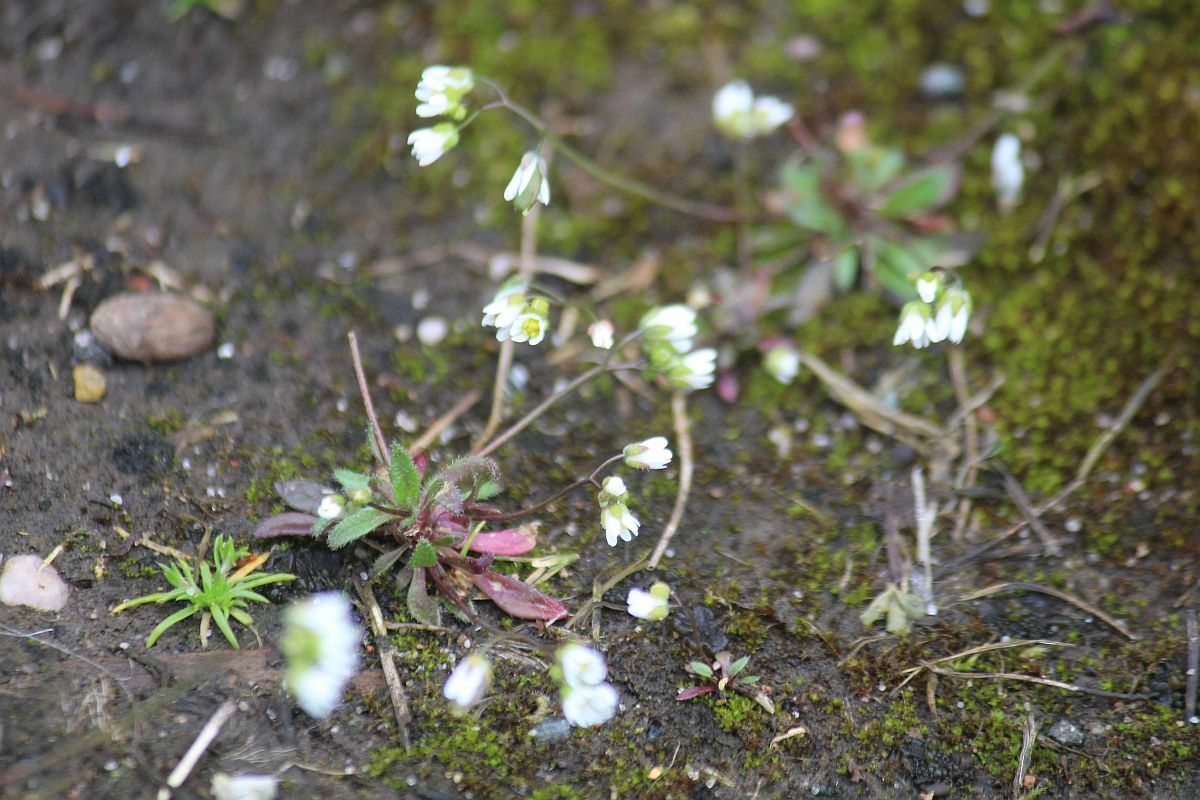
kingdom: Plantae
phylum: Tracheophyta
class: Magnoliopsida
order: Brassicales
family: Brassicaceae
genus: Draba
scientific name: Draba verna
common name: Spring draba
